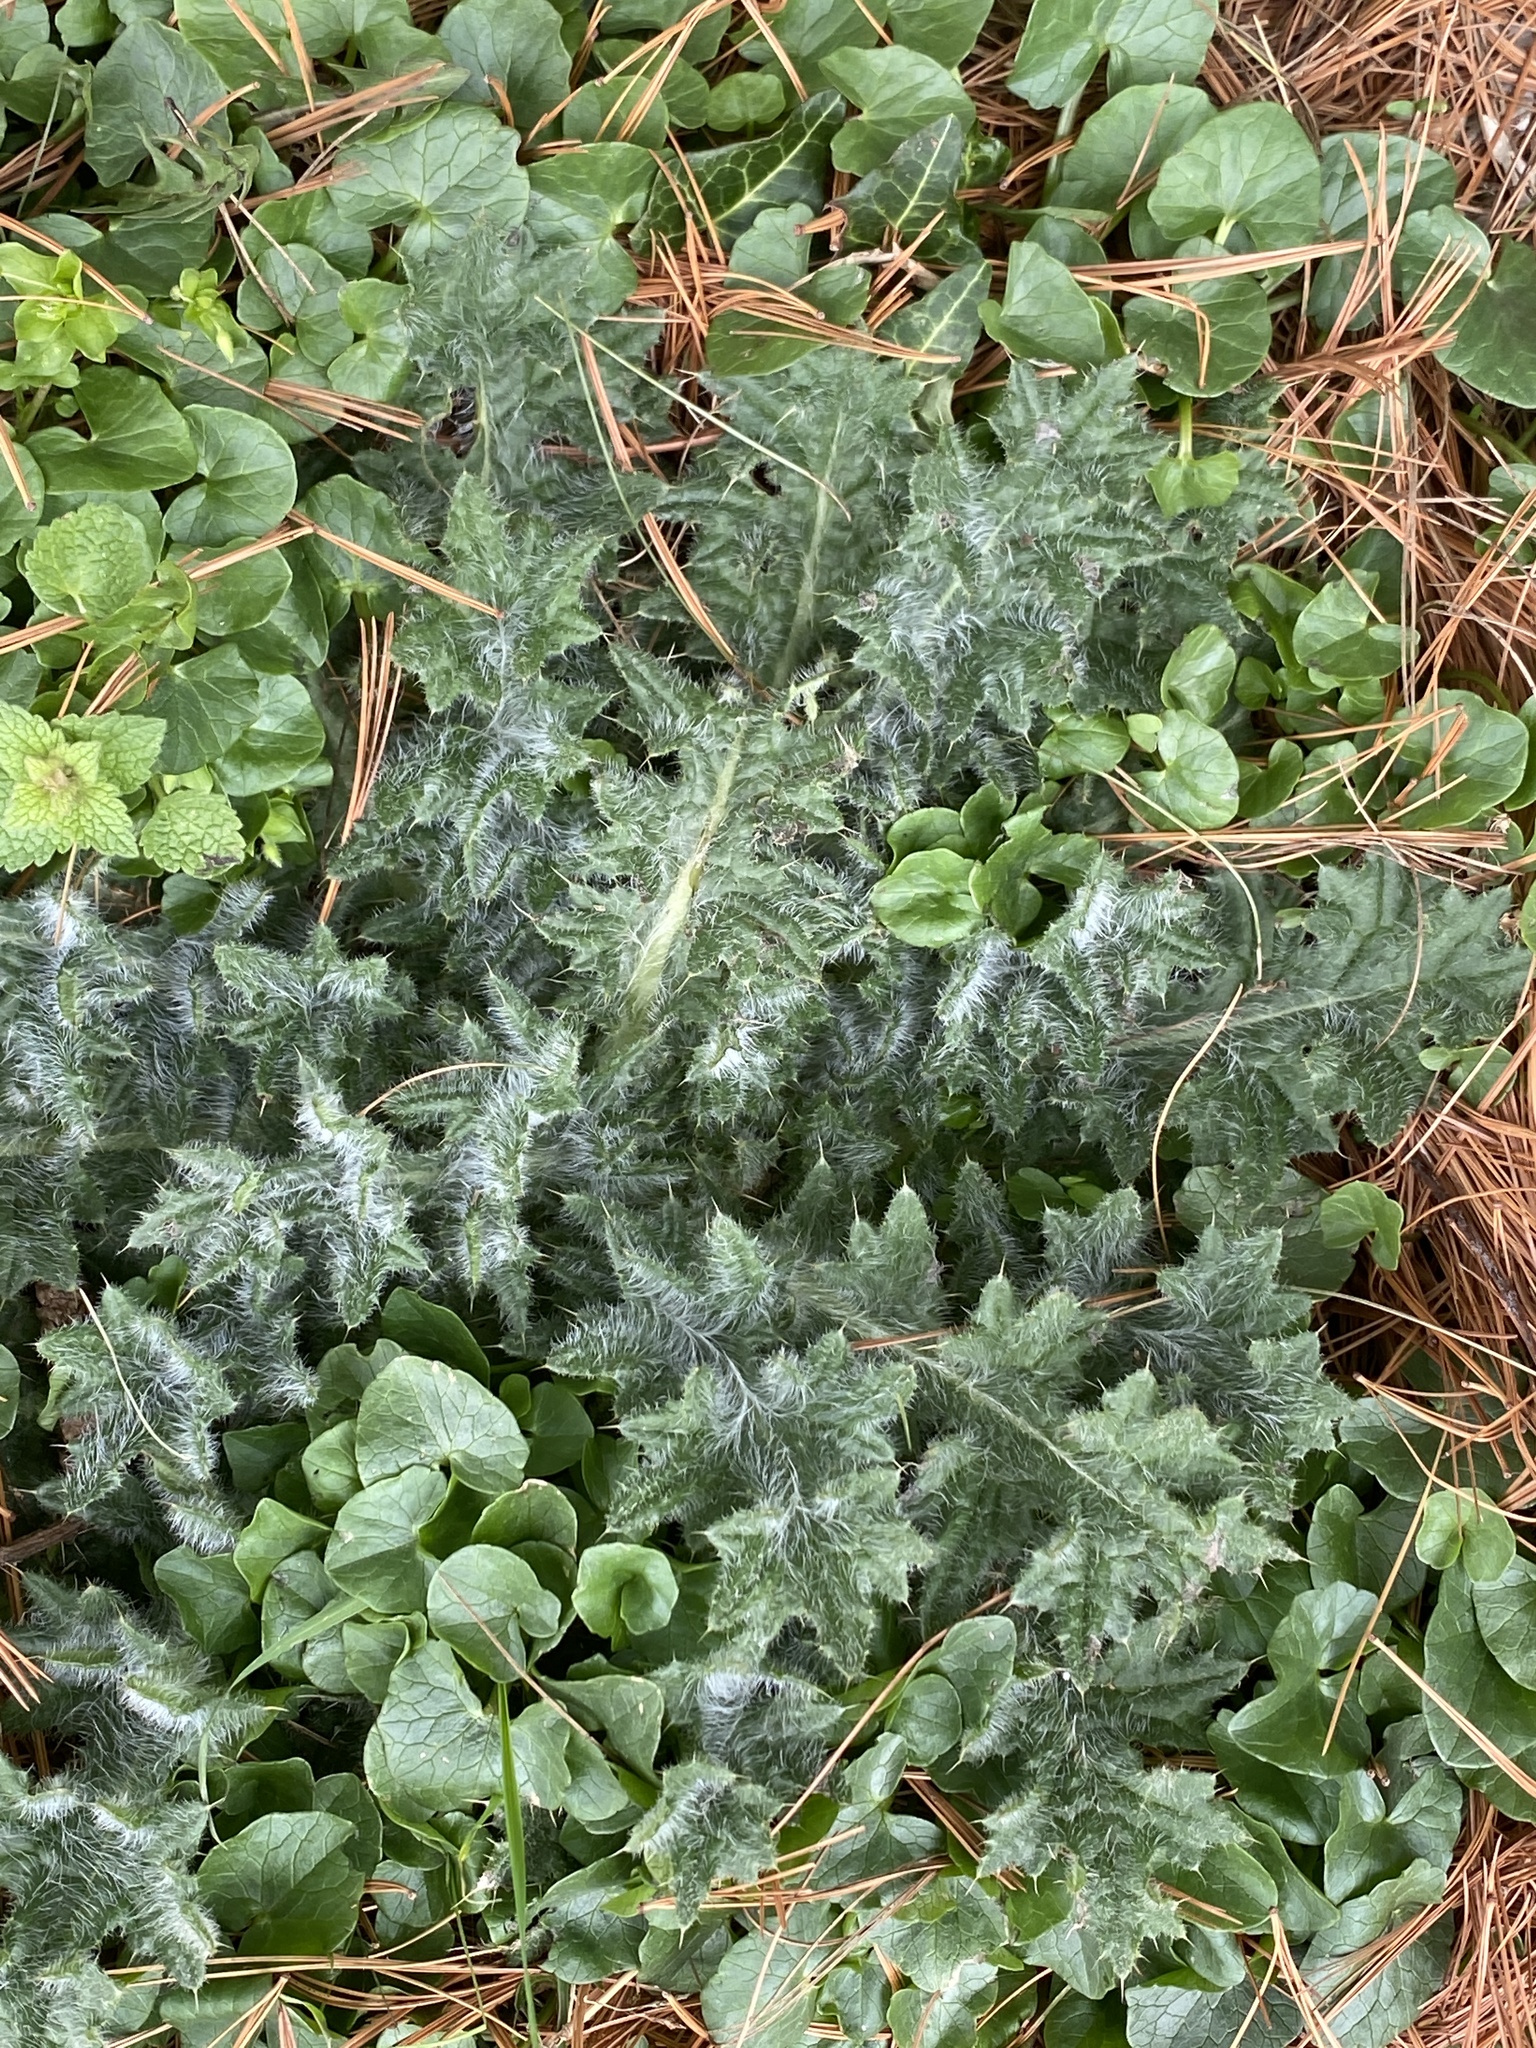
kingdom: Plantae
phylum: Tracheophyta
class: Magnoliopsida
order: Asterales
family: Asteraceae
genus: Cirsium
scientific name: Cirsium vulgare
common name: Bull thistle
